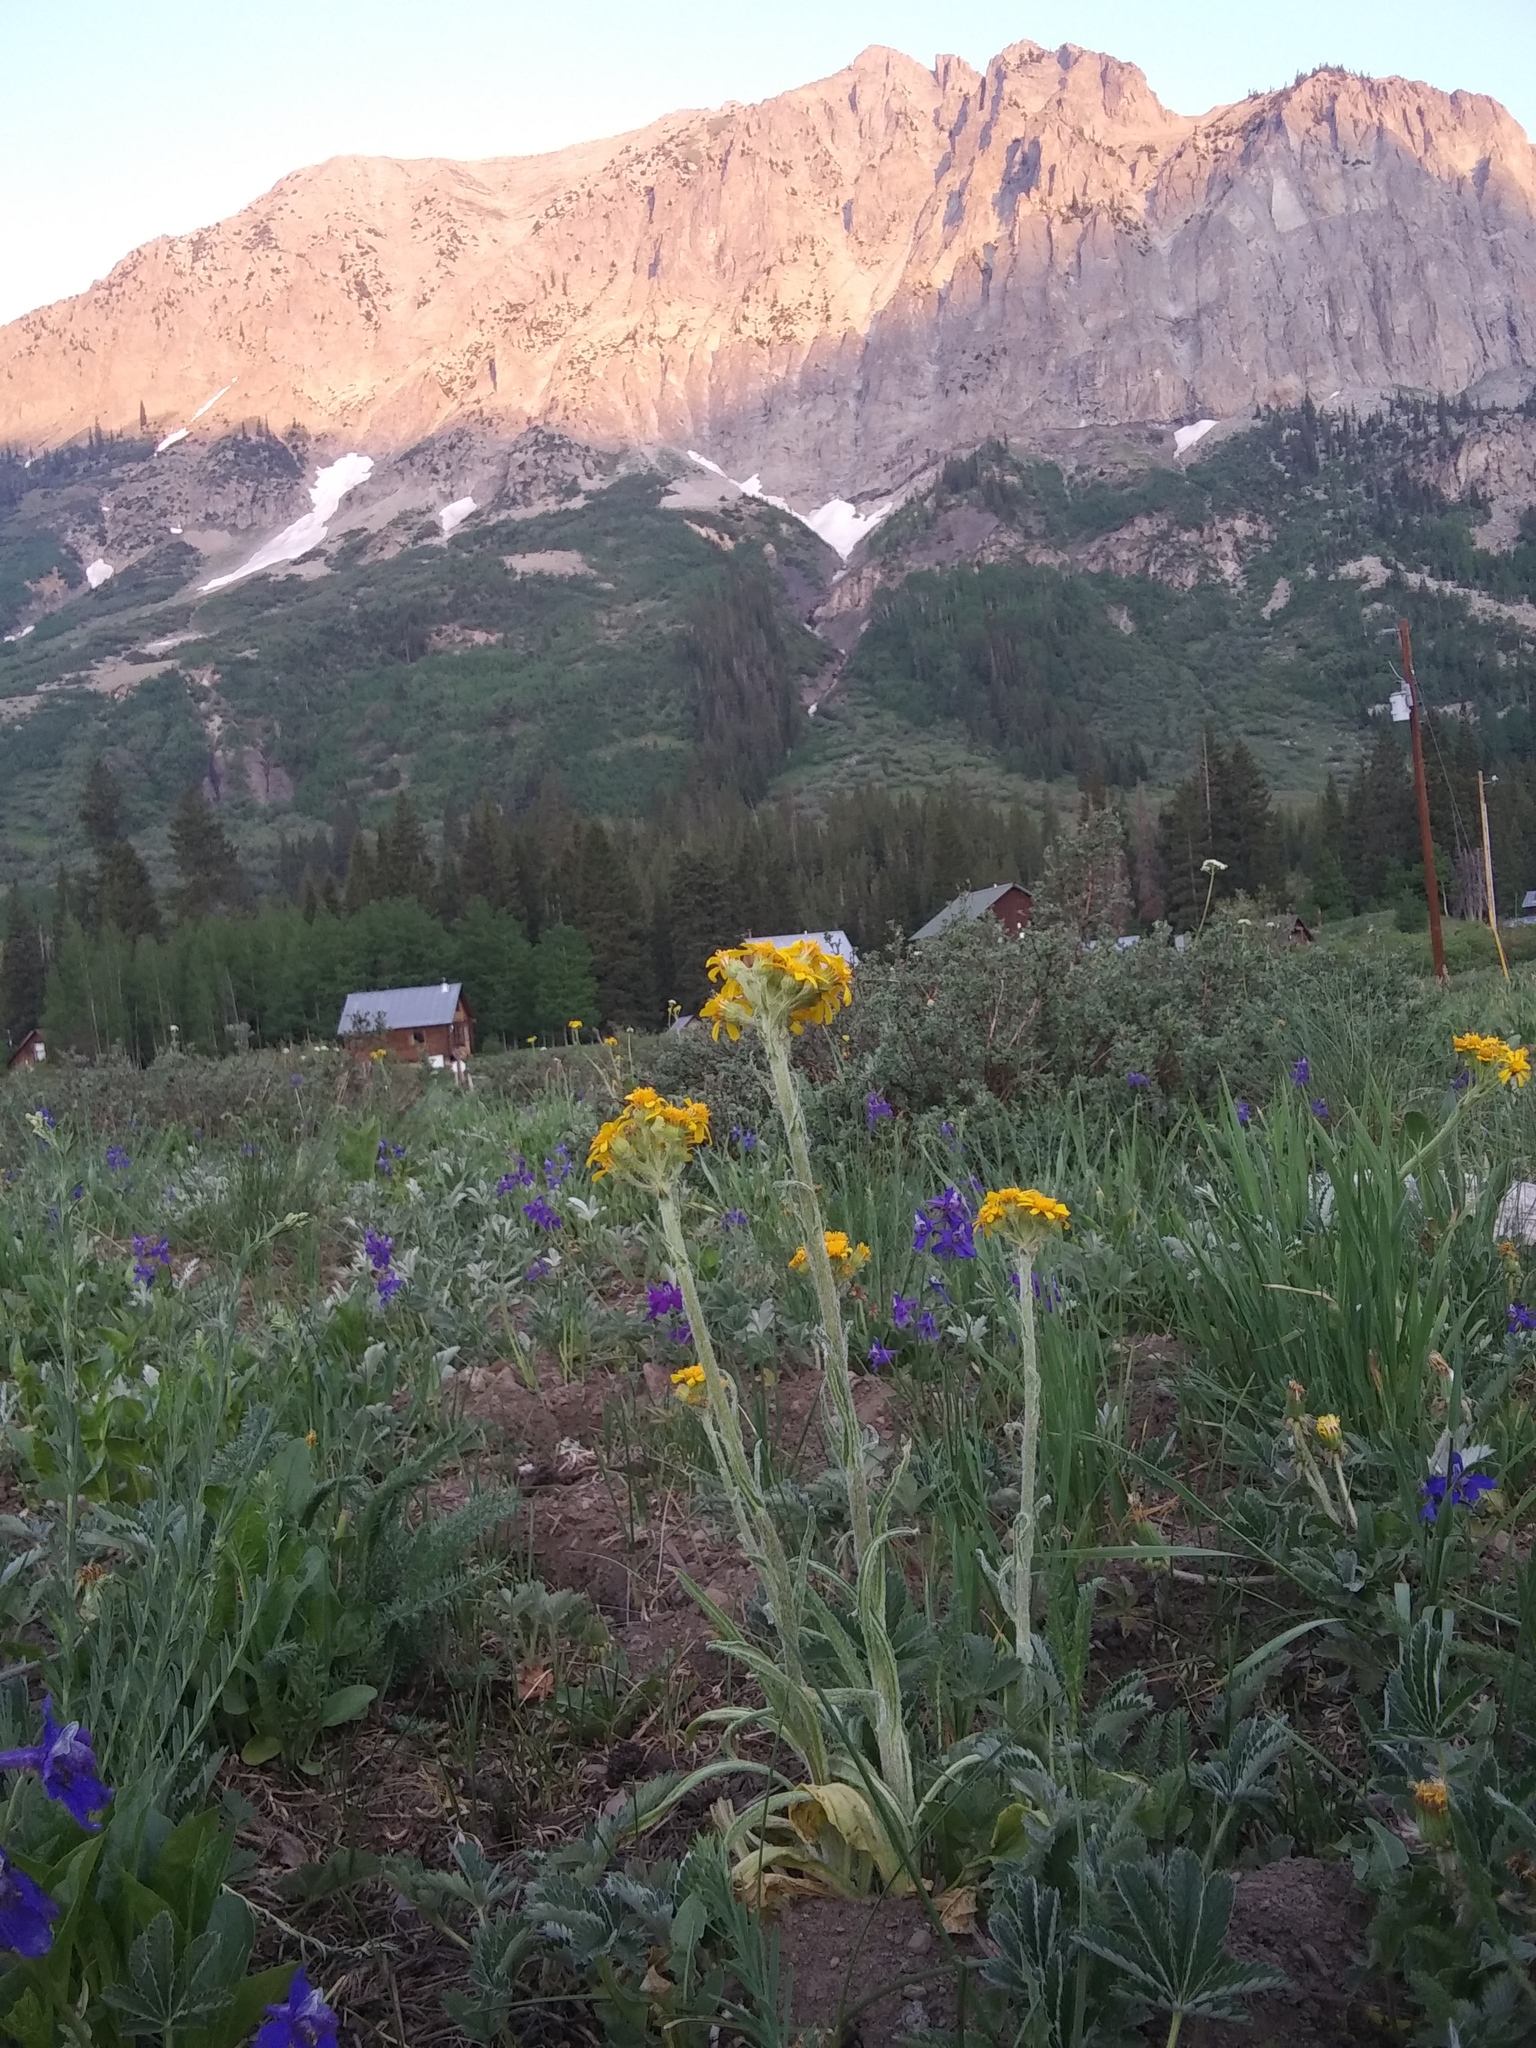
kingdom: Plantae
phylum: Tracheophyta
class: Magnoliopsida
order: Asterales
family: Asteraceae
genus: Senecio
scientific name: Senecio integerrimus
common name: Gaugeplant
